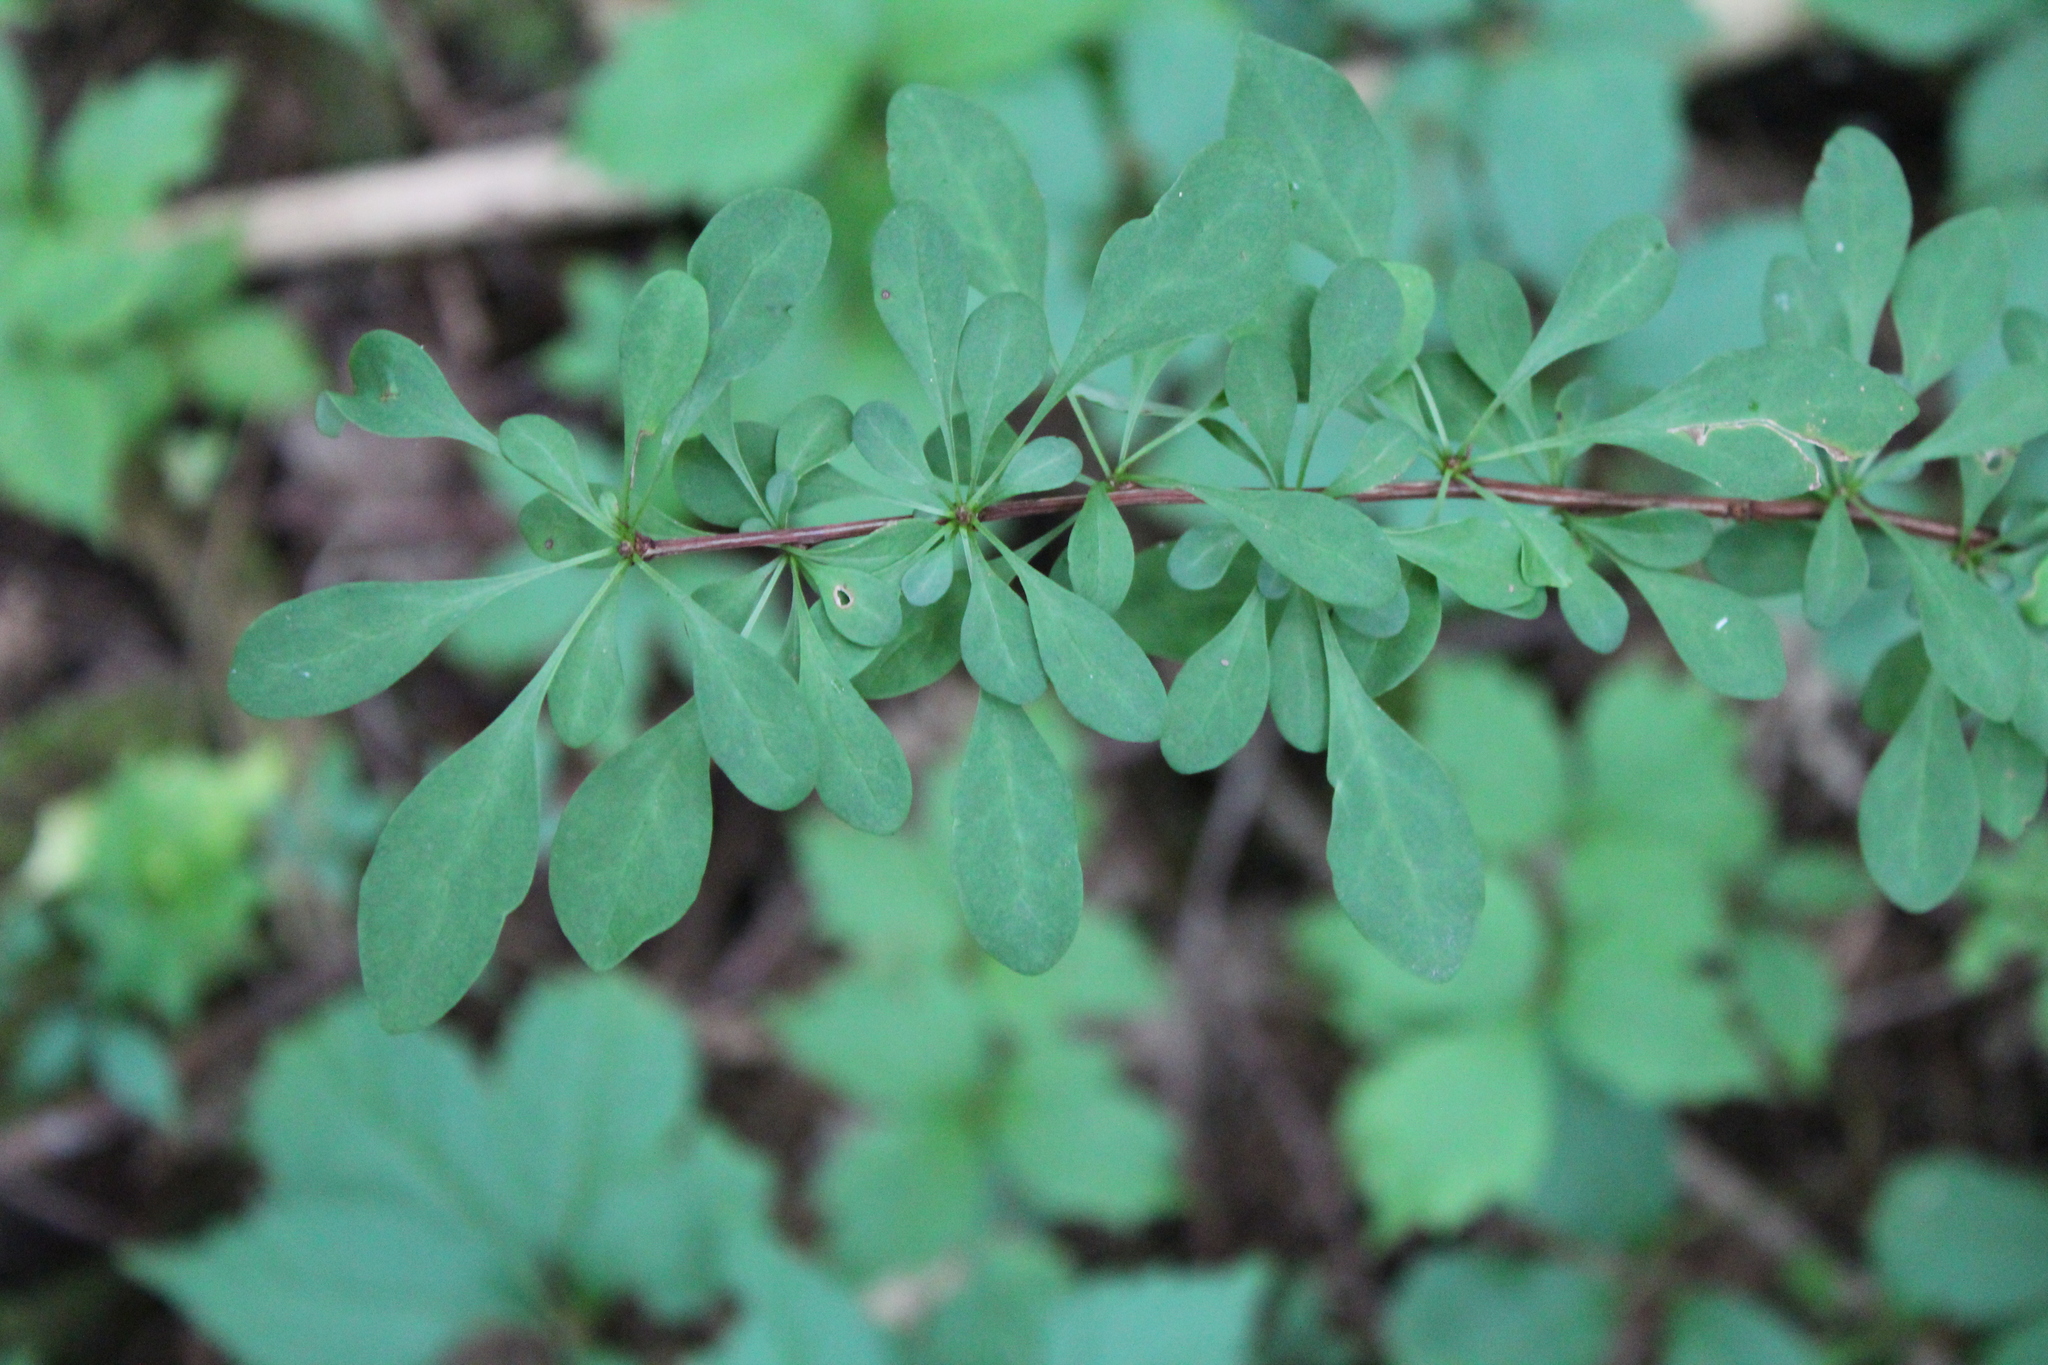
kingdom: Plantae
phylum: Tracheophyta
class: Magnoliopsida
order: Ranunculales
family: Berberidaceae
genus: Berberis
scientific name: Berberis thunbergii
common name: Japanese barberry
